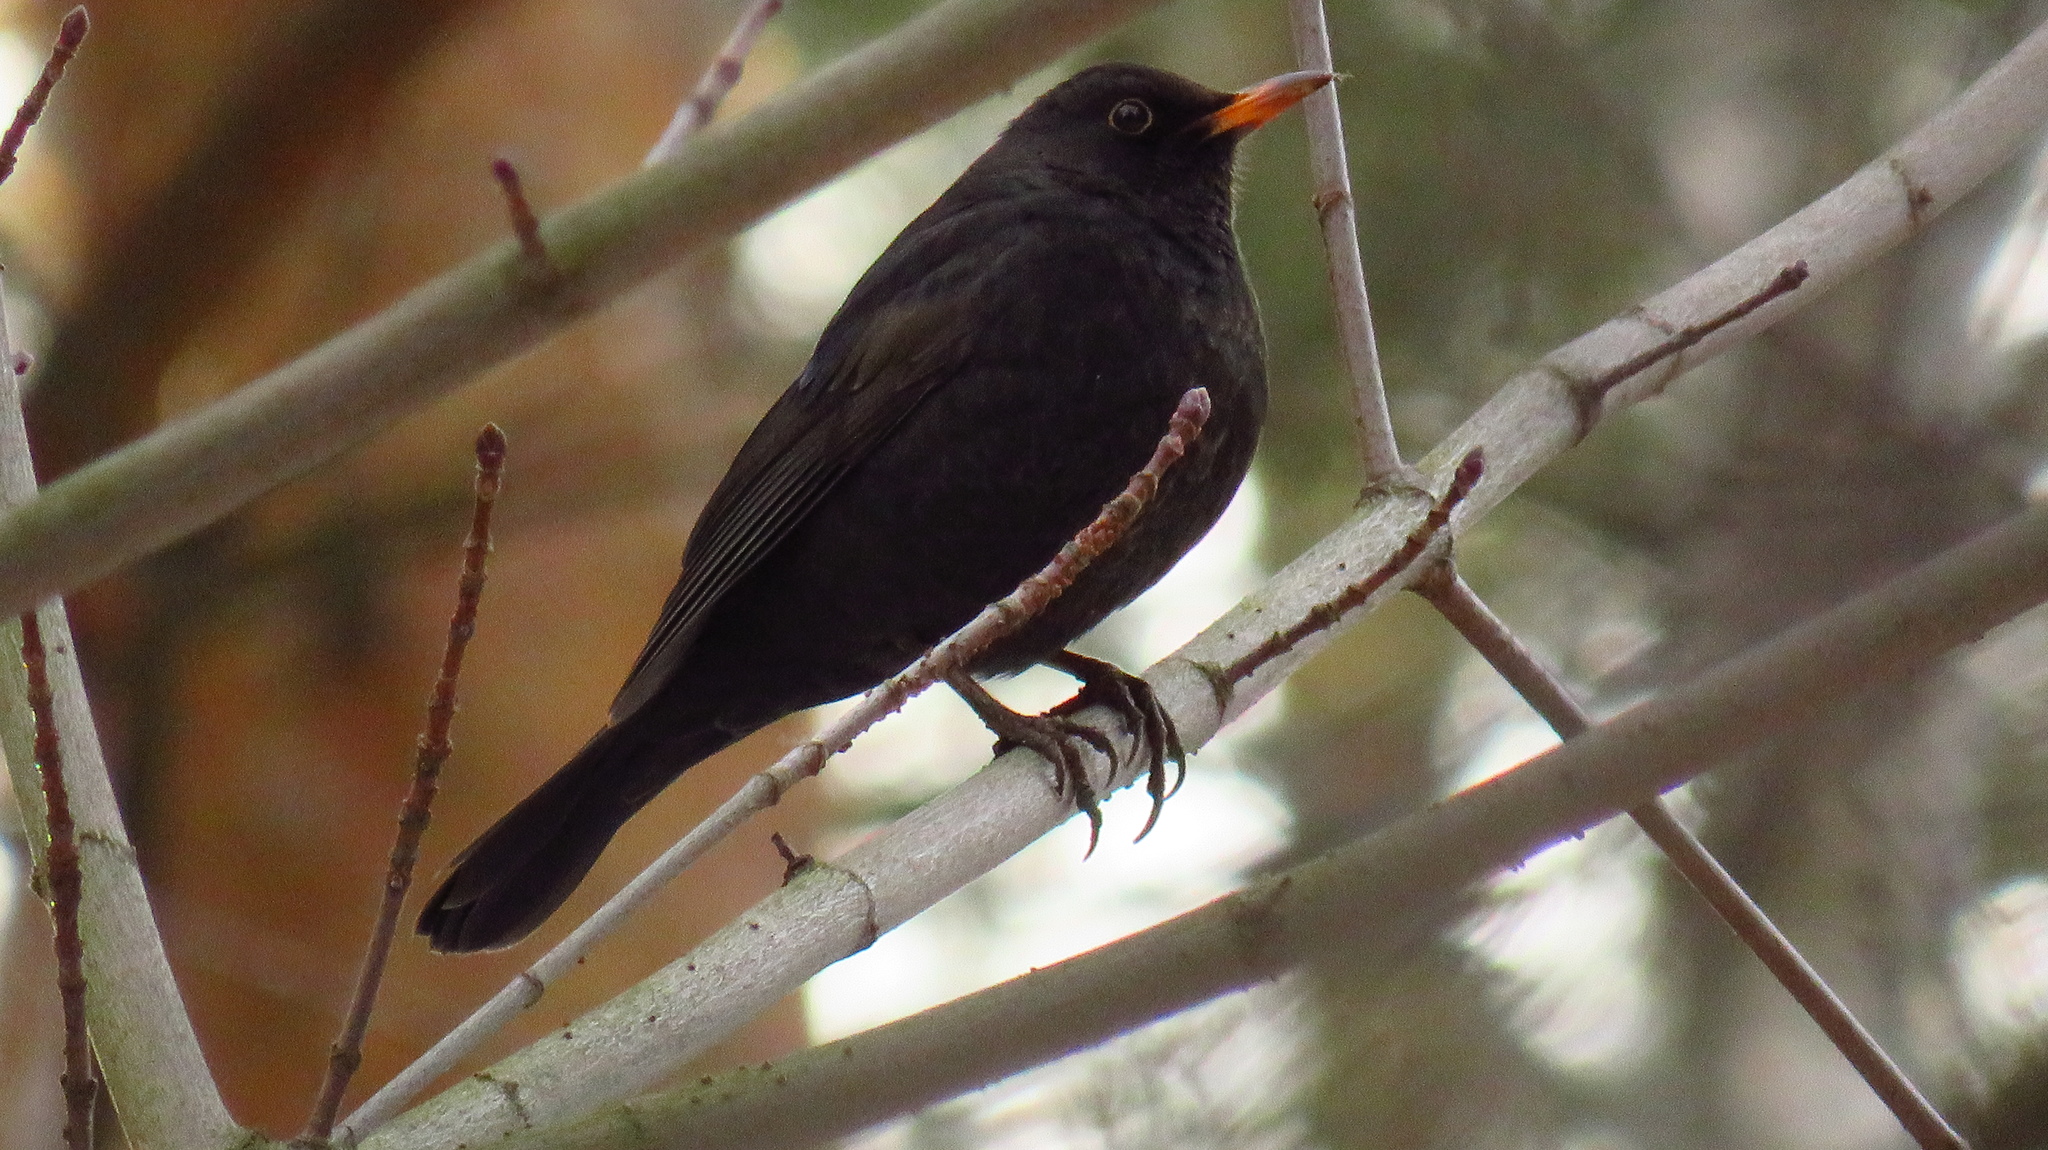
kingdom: Animalia
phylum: Chordata
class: Aves
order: Passeriformes
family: Turdidae
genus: Turdus
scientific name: Turdus merula
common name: Common blackbird
